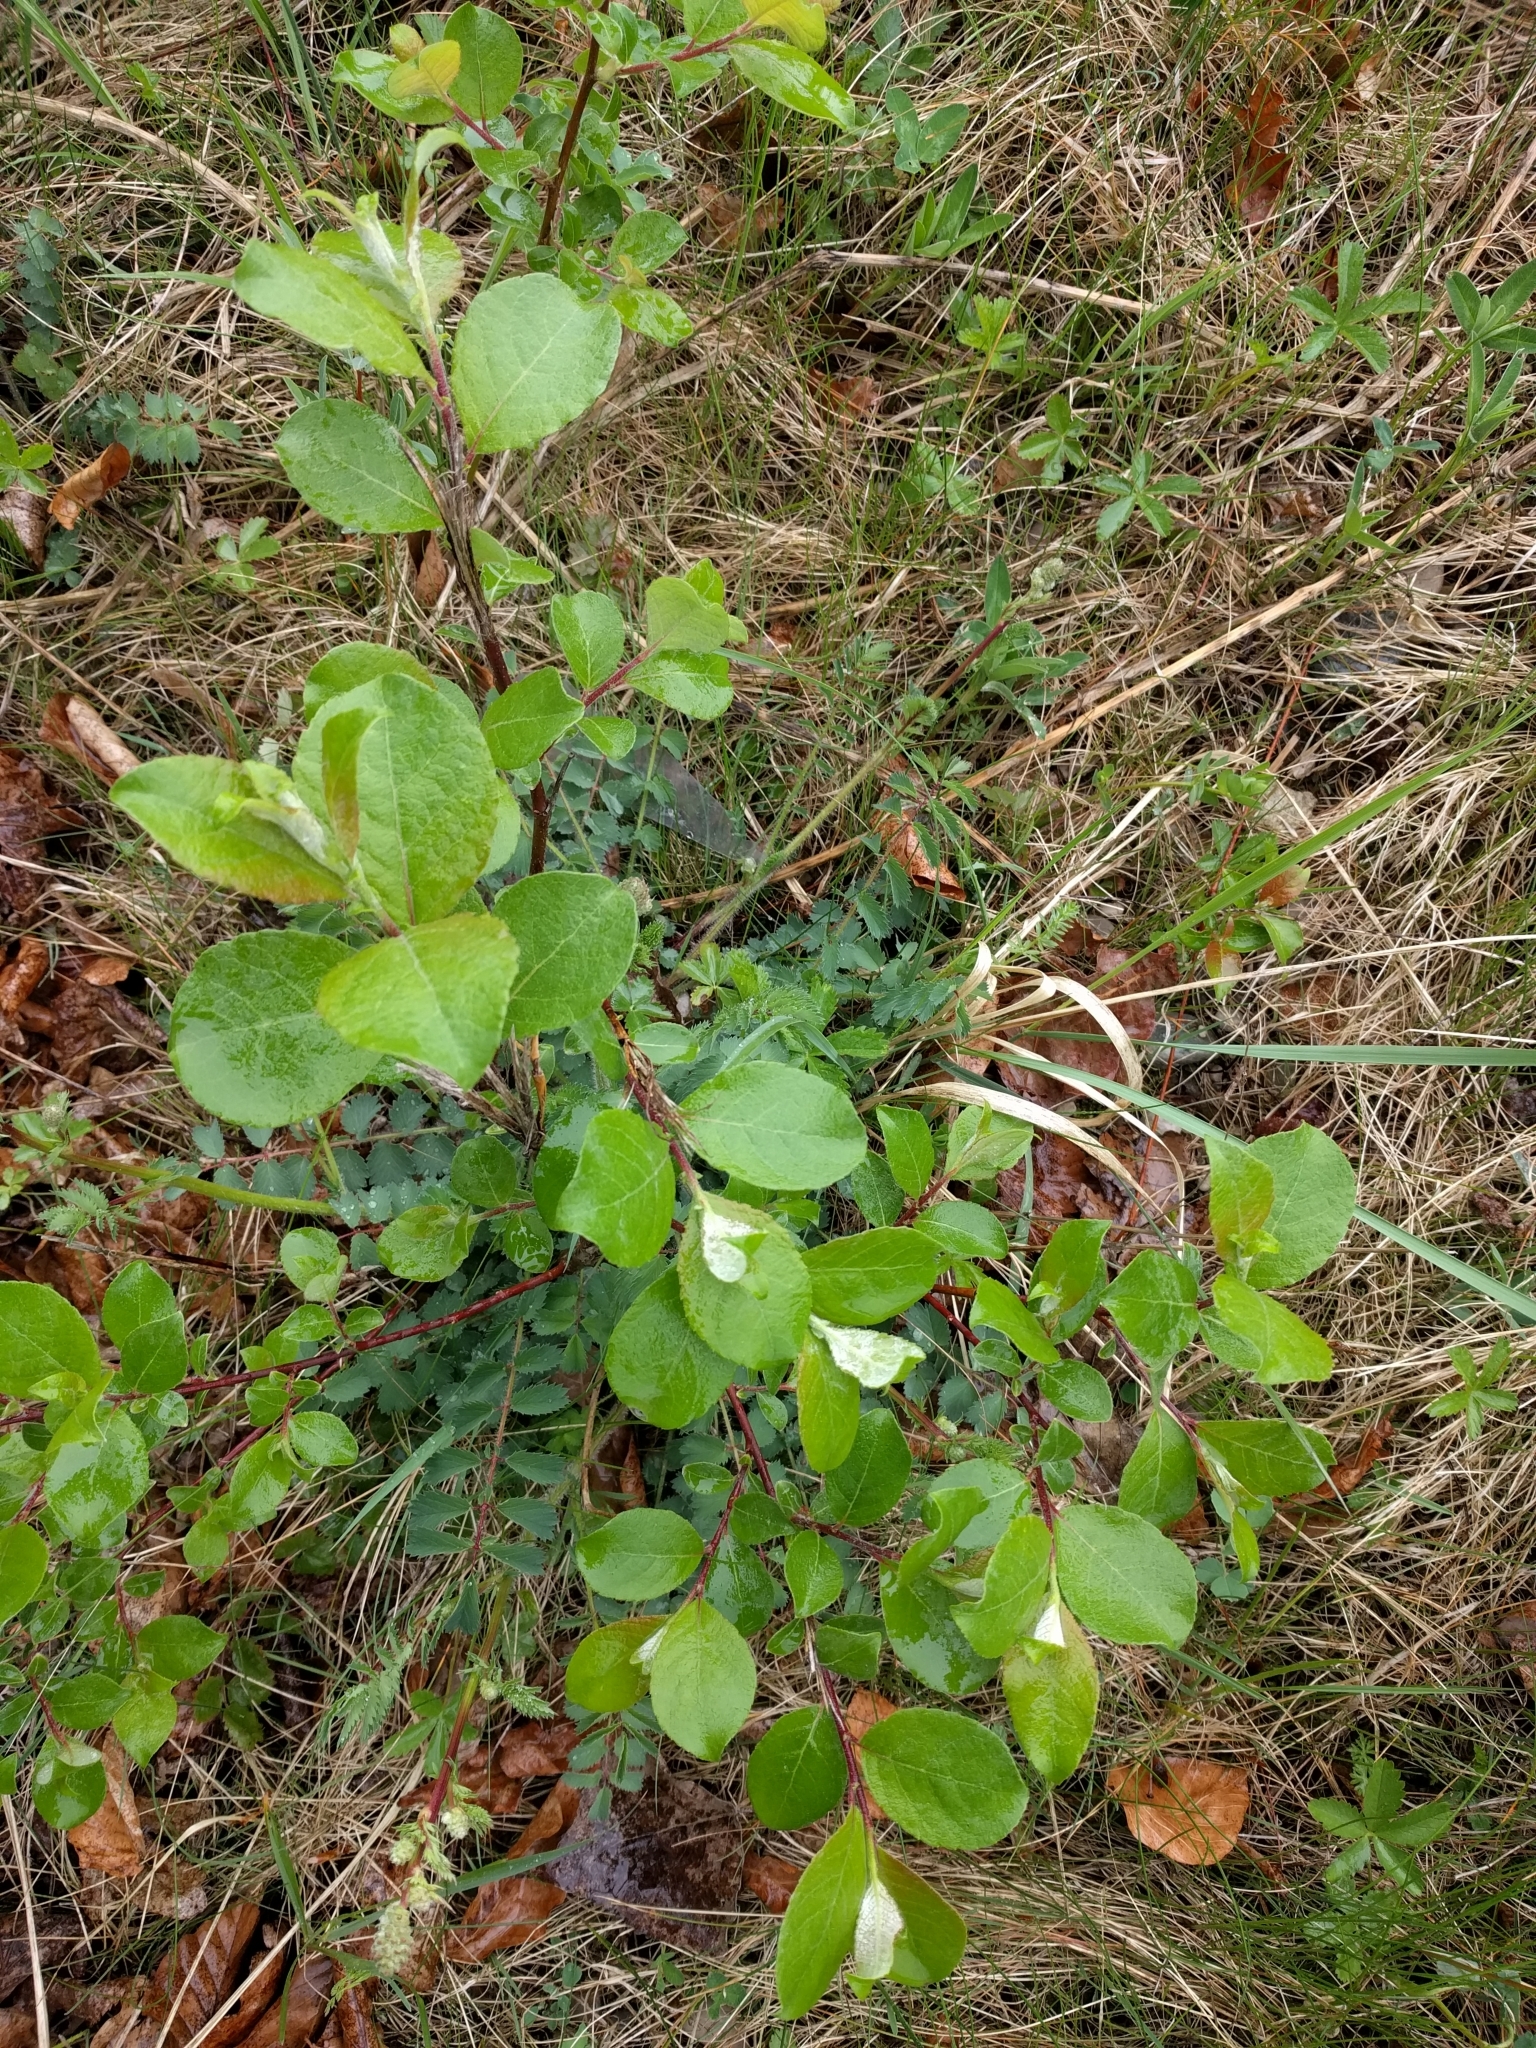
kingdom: Plantae
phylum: Tracheophyta
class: Magnoliopsida
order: Malpighiales
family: Salicaceae
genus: Salix
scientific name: Salix caprea
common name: Goat willow
